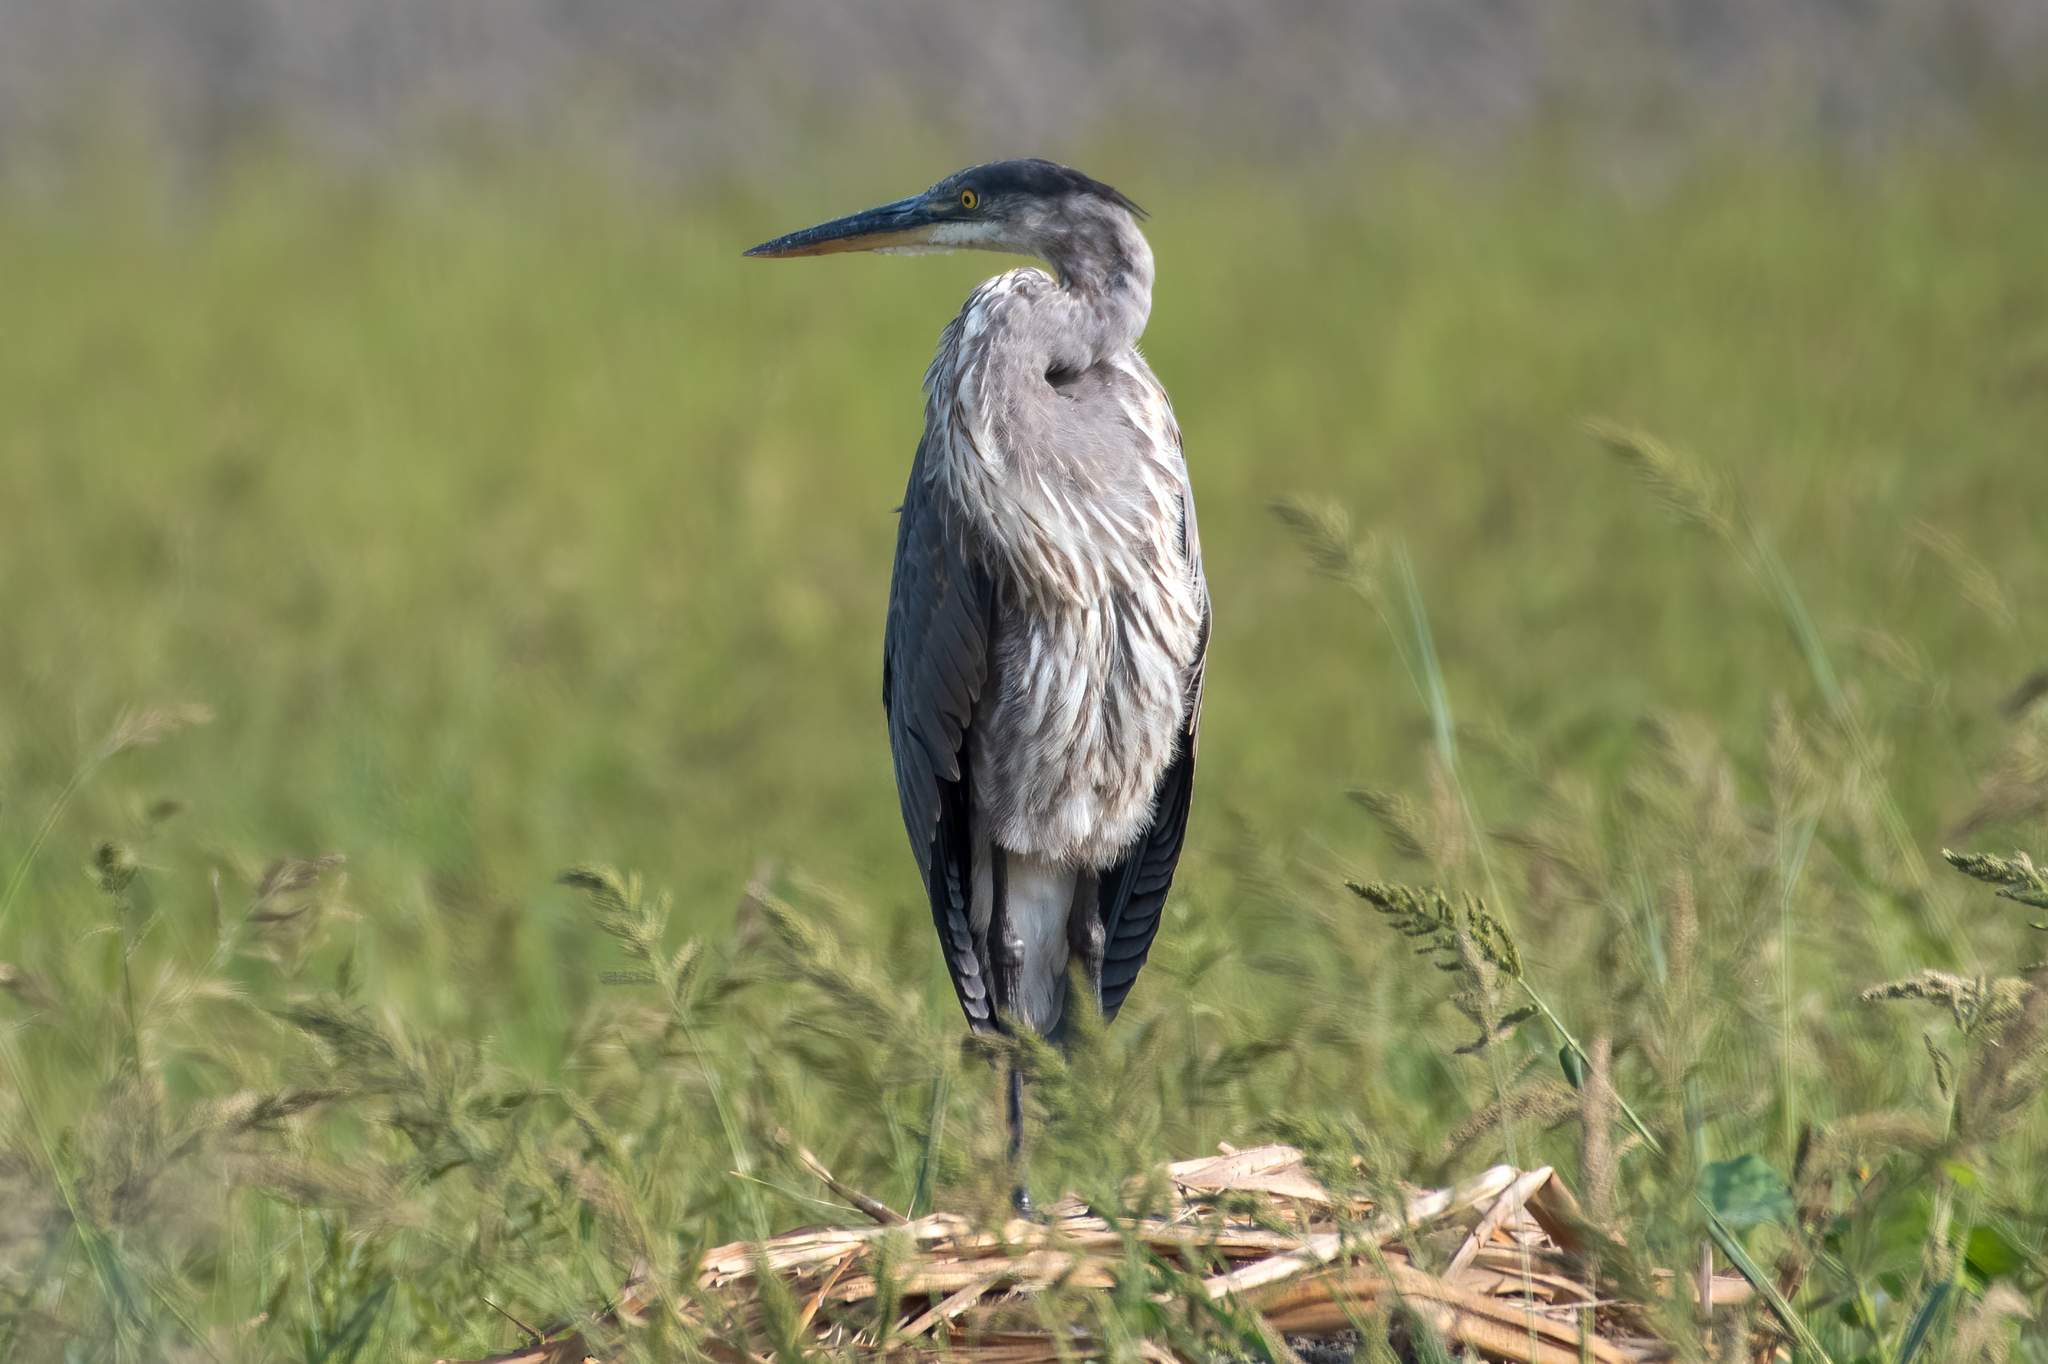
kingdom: Animalia
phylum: Chordata
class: Aves
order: Pelecaniformes
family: Ardeidae
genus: Ardea
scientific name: Ardea herodias
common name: Great blue heron
